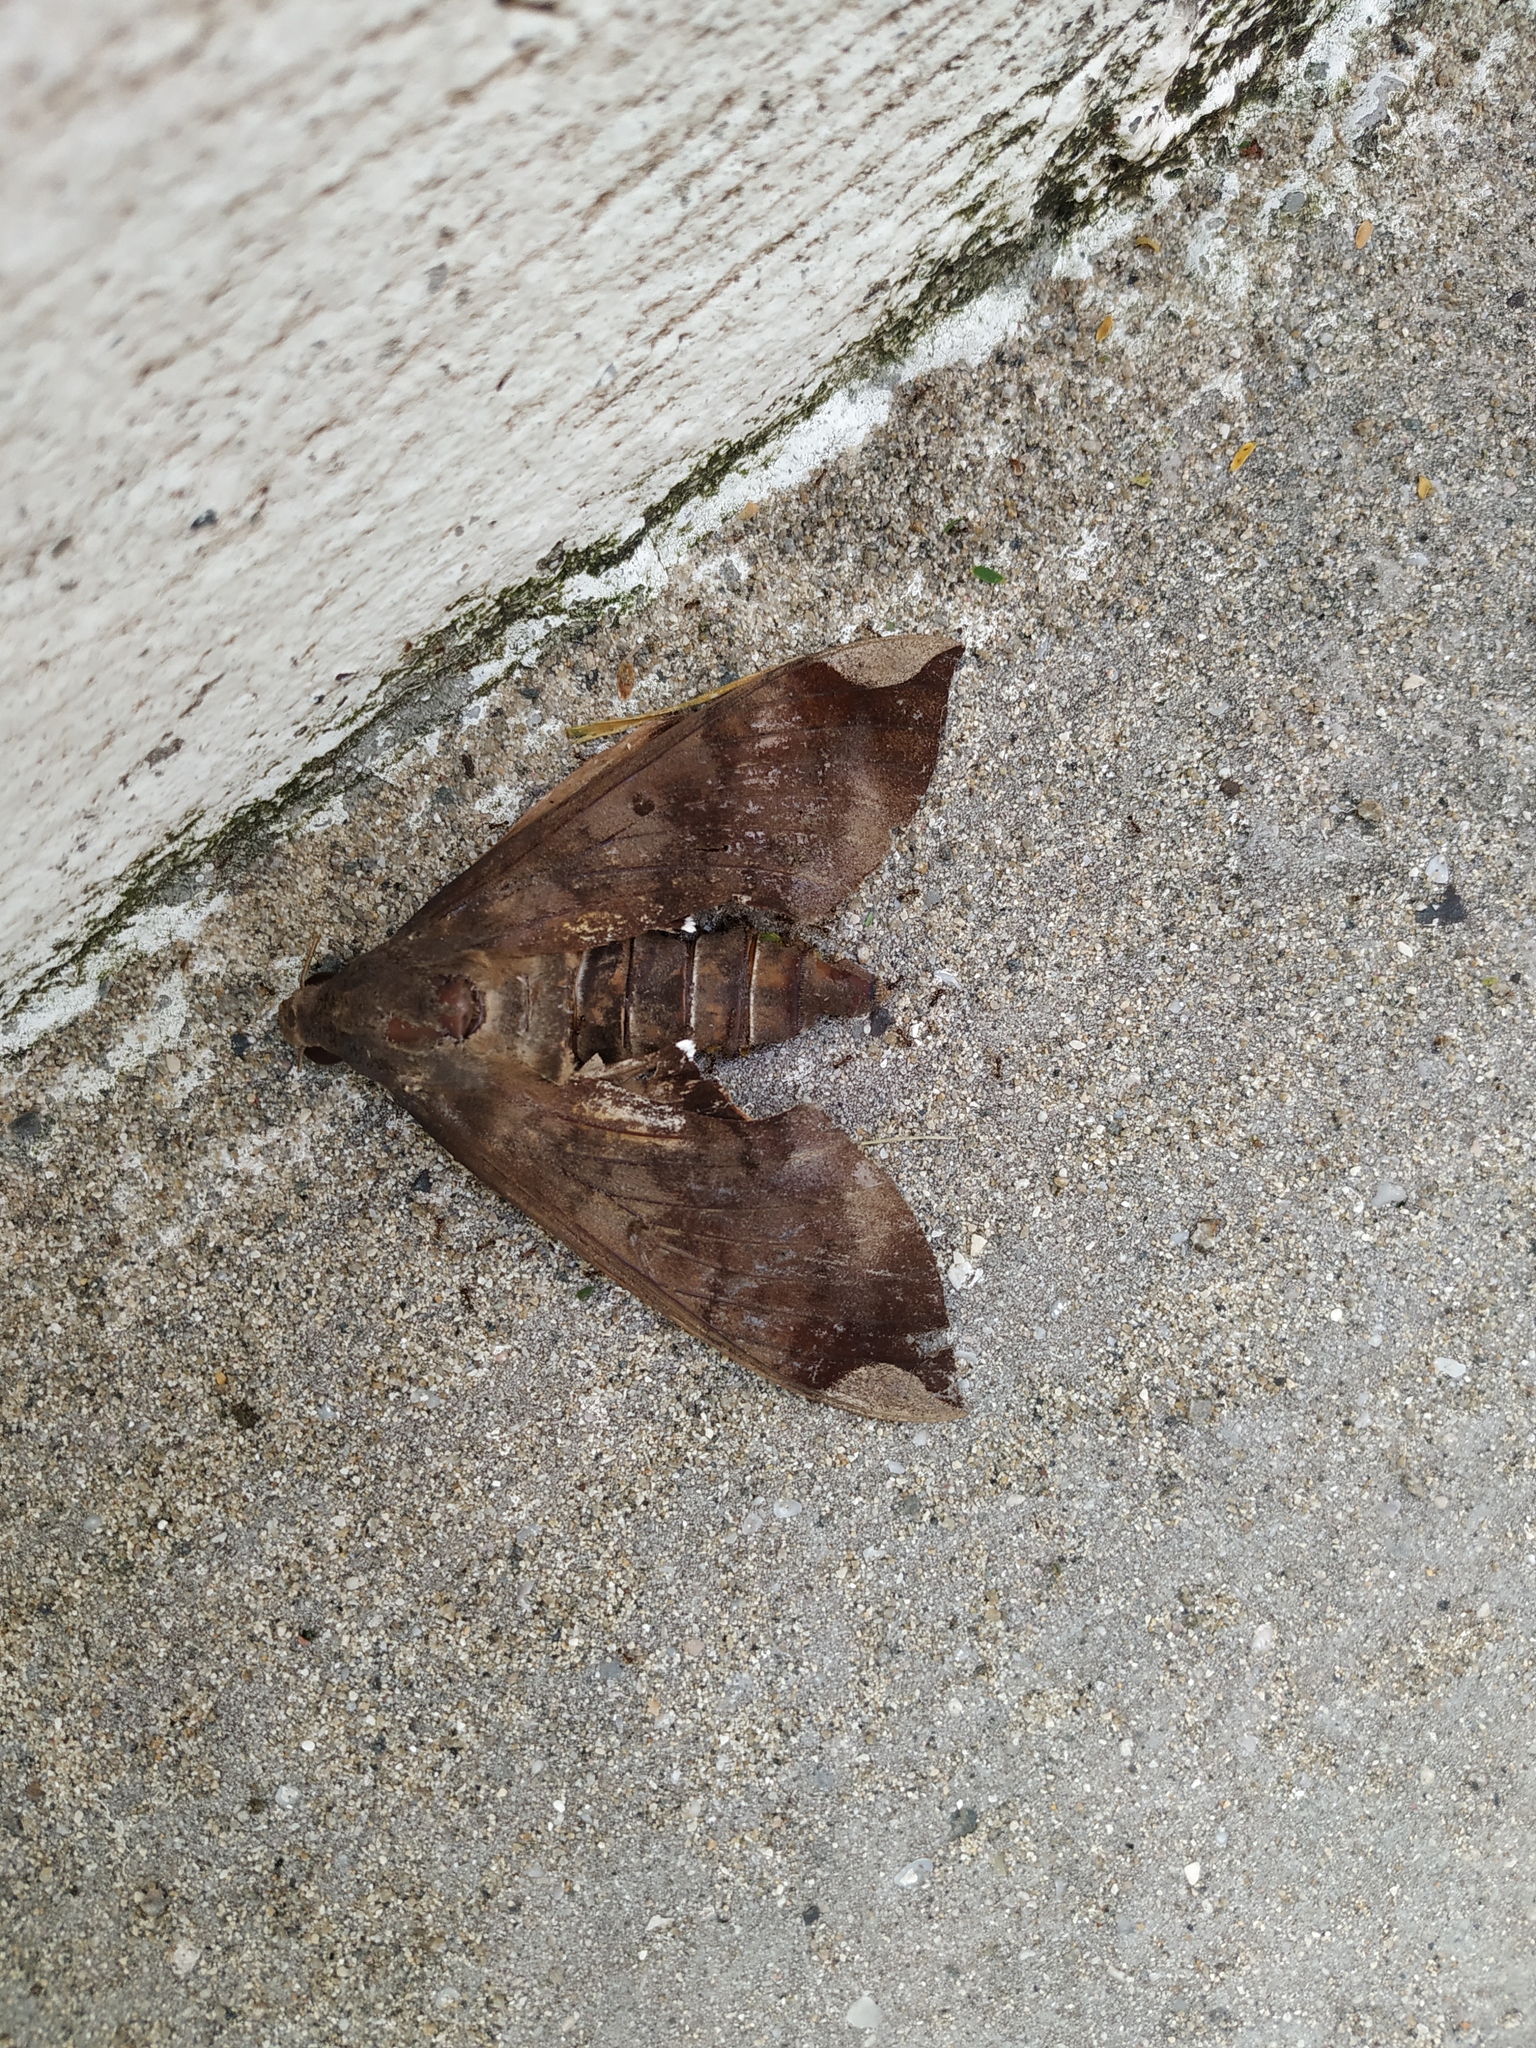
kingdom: Animalia
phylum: Arthropoda
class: Insecta
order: Lepidoptera
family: Sphingidae
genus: Pachylia
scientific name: Pachylia ficus
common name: Fig sphinx
